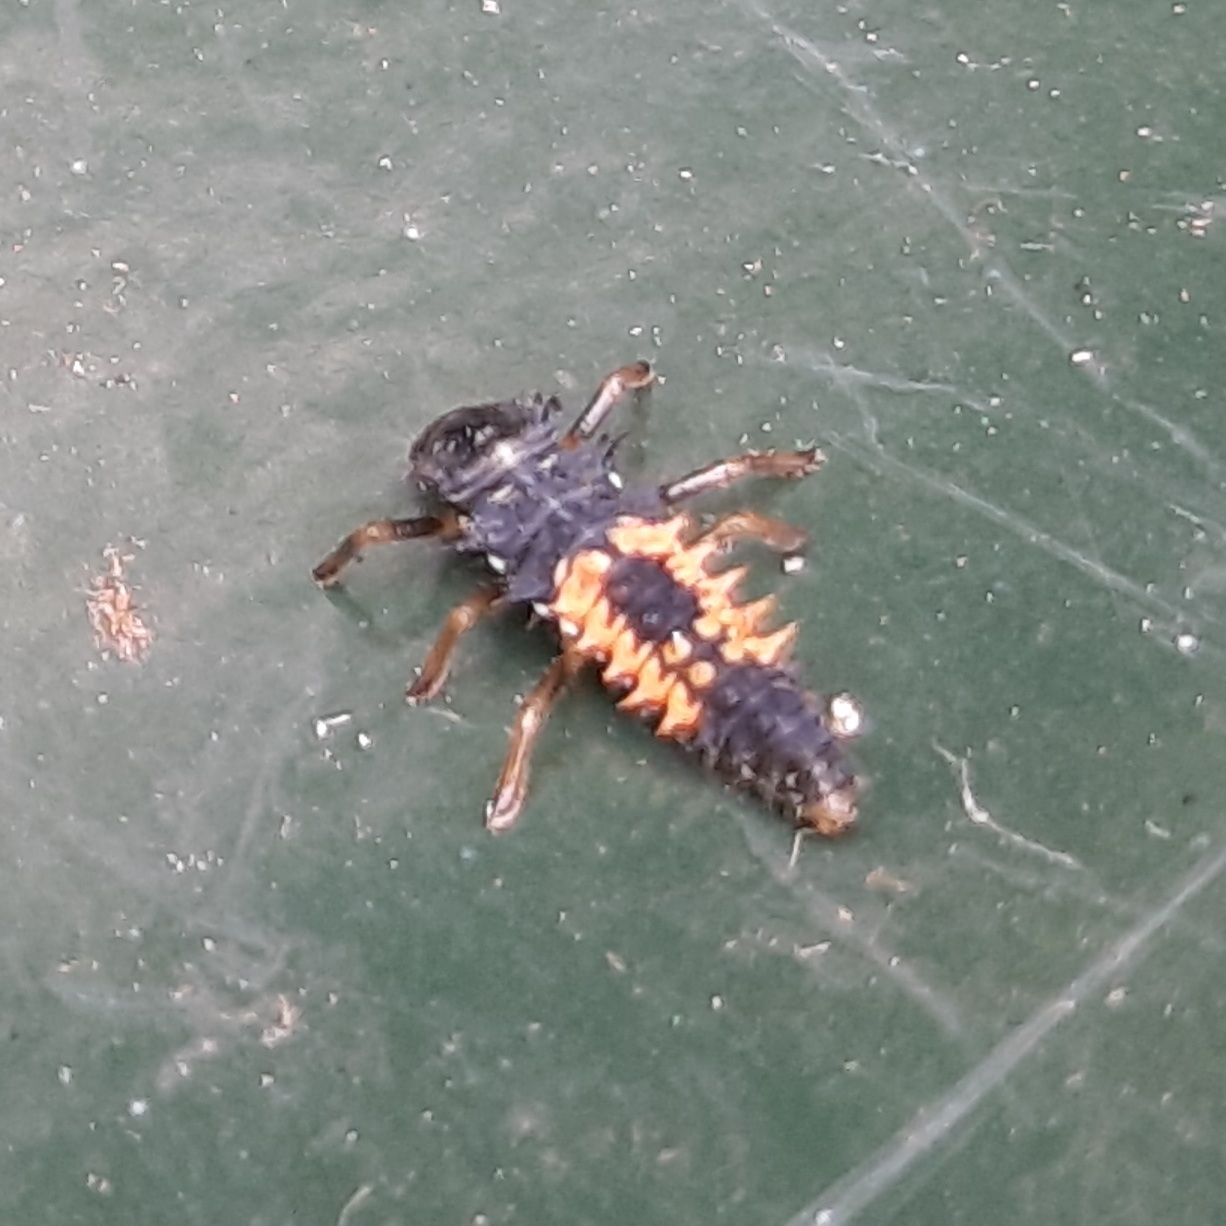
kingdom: Animalia
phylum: Arthropoda
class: Insecta
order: Coleoptera
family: Coccinellidae
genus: Harmonia
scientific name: Harmonia axyridis
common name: Harlequin ladybird
